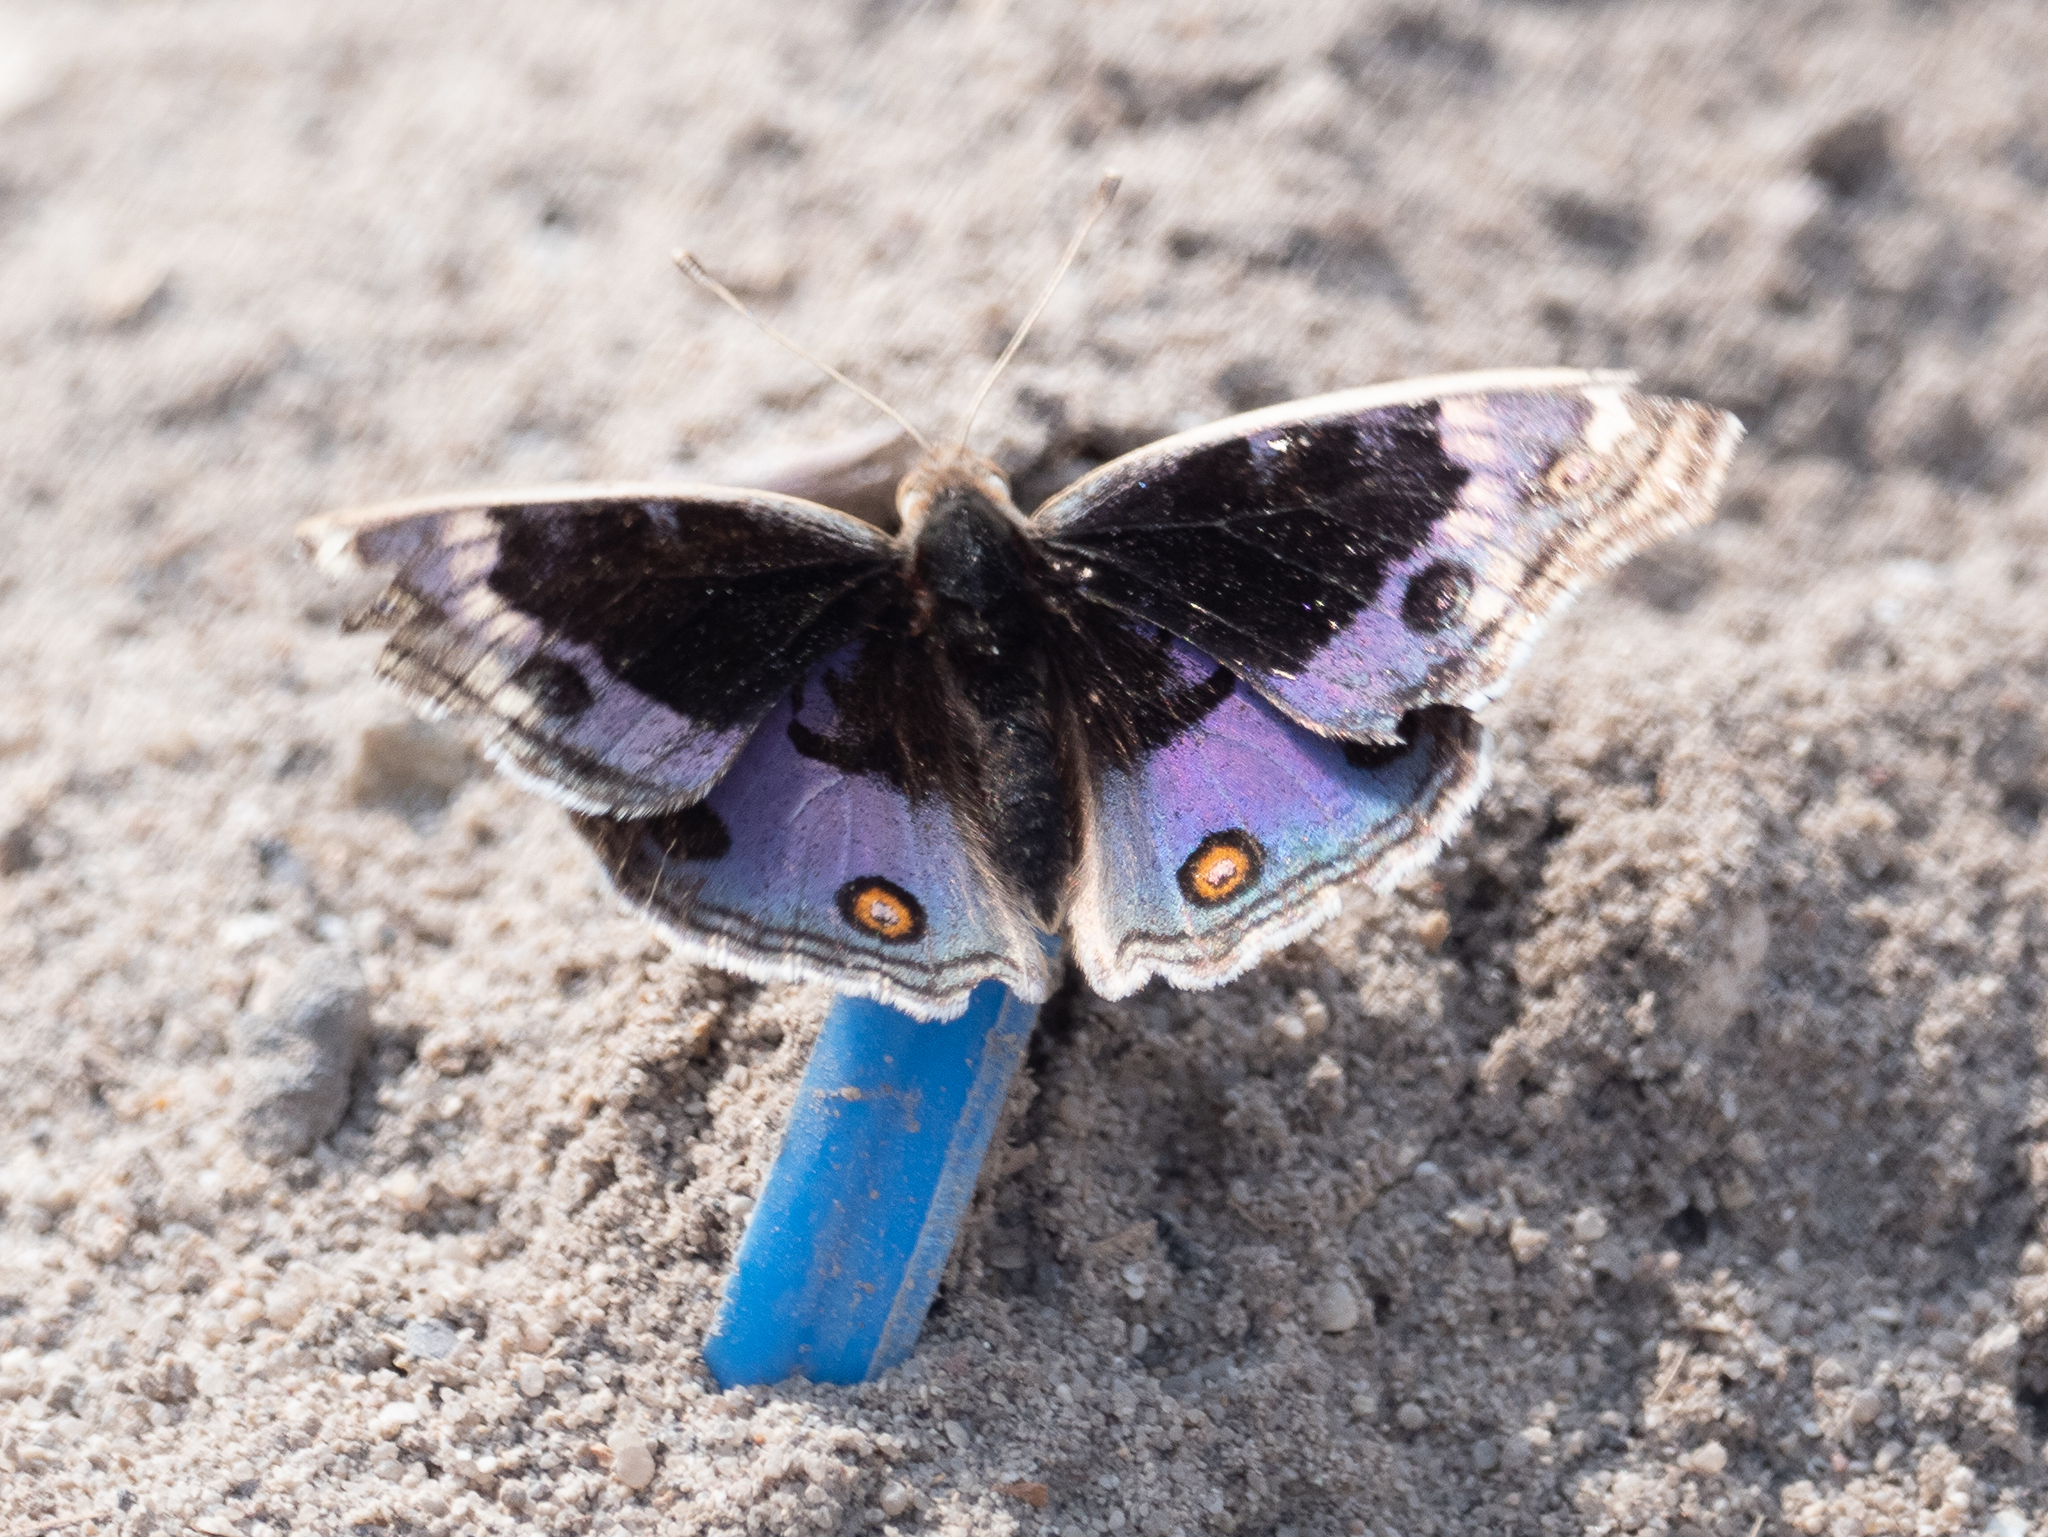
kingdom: Animalia
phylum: Arthropoda
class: Insecta
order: Lepidoptera
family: Nymphalidae
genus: Junonia
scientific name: Junonia orithya
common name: Blue pansy
